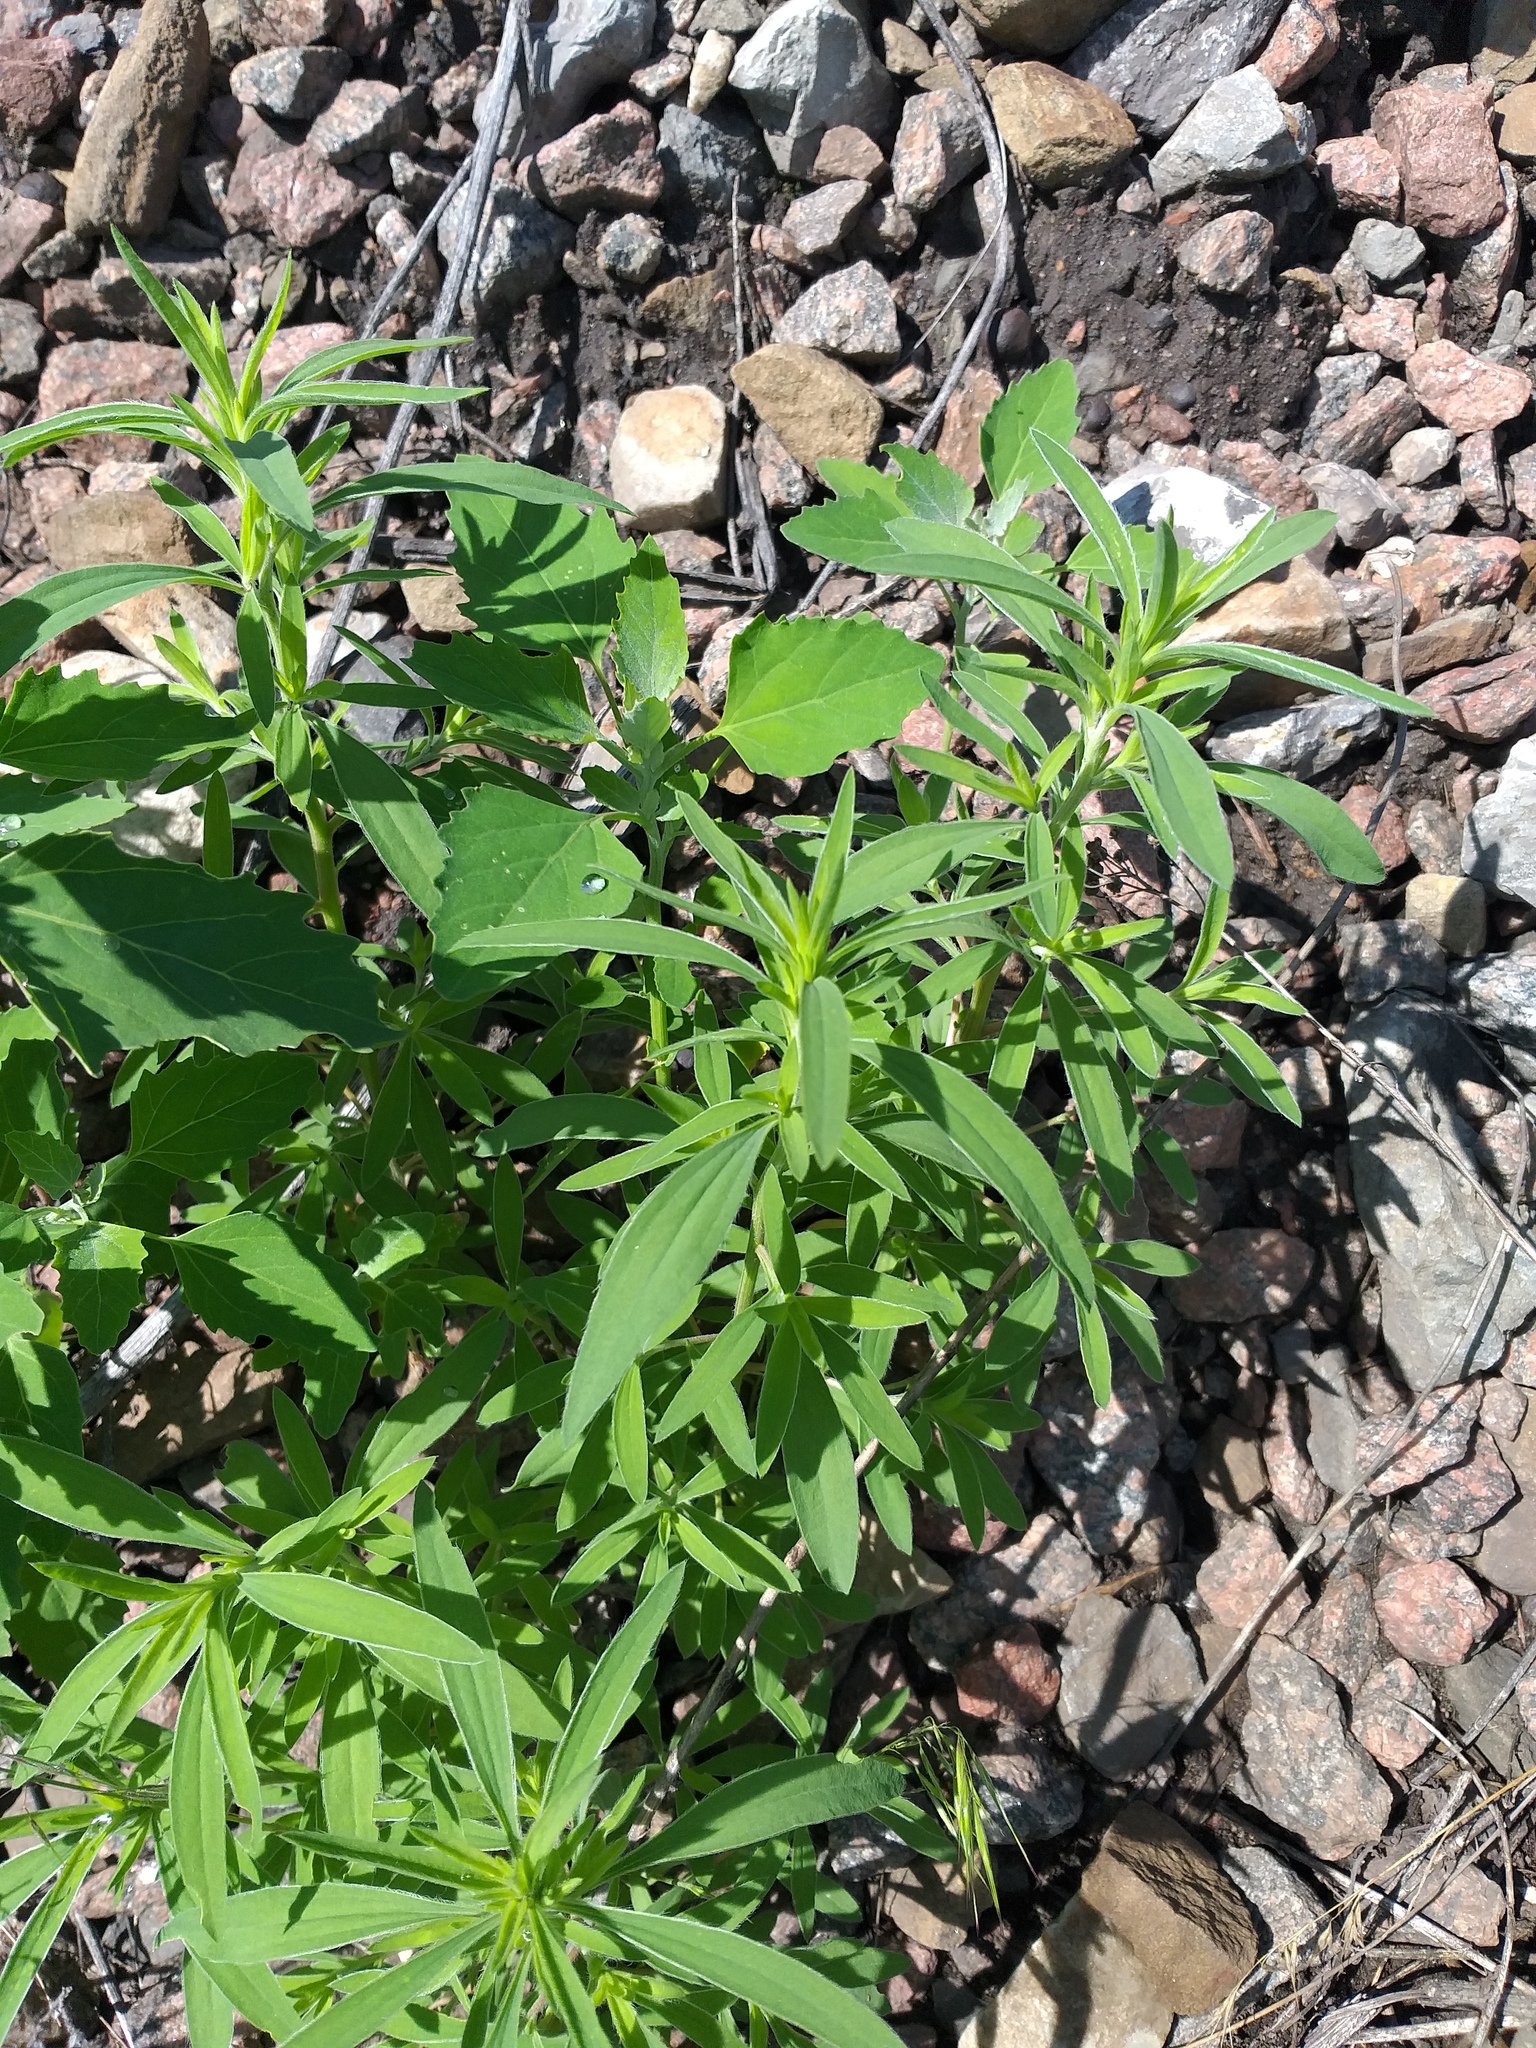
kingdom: Plantae
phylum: Tracheophyta
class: Magnoliopsida
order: Caryophyllales
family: Amaranthaceae
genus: Bassia
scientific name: Bassia scoparia
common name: Belvedere
